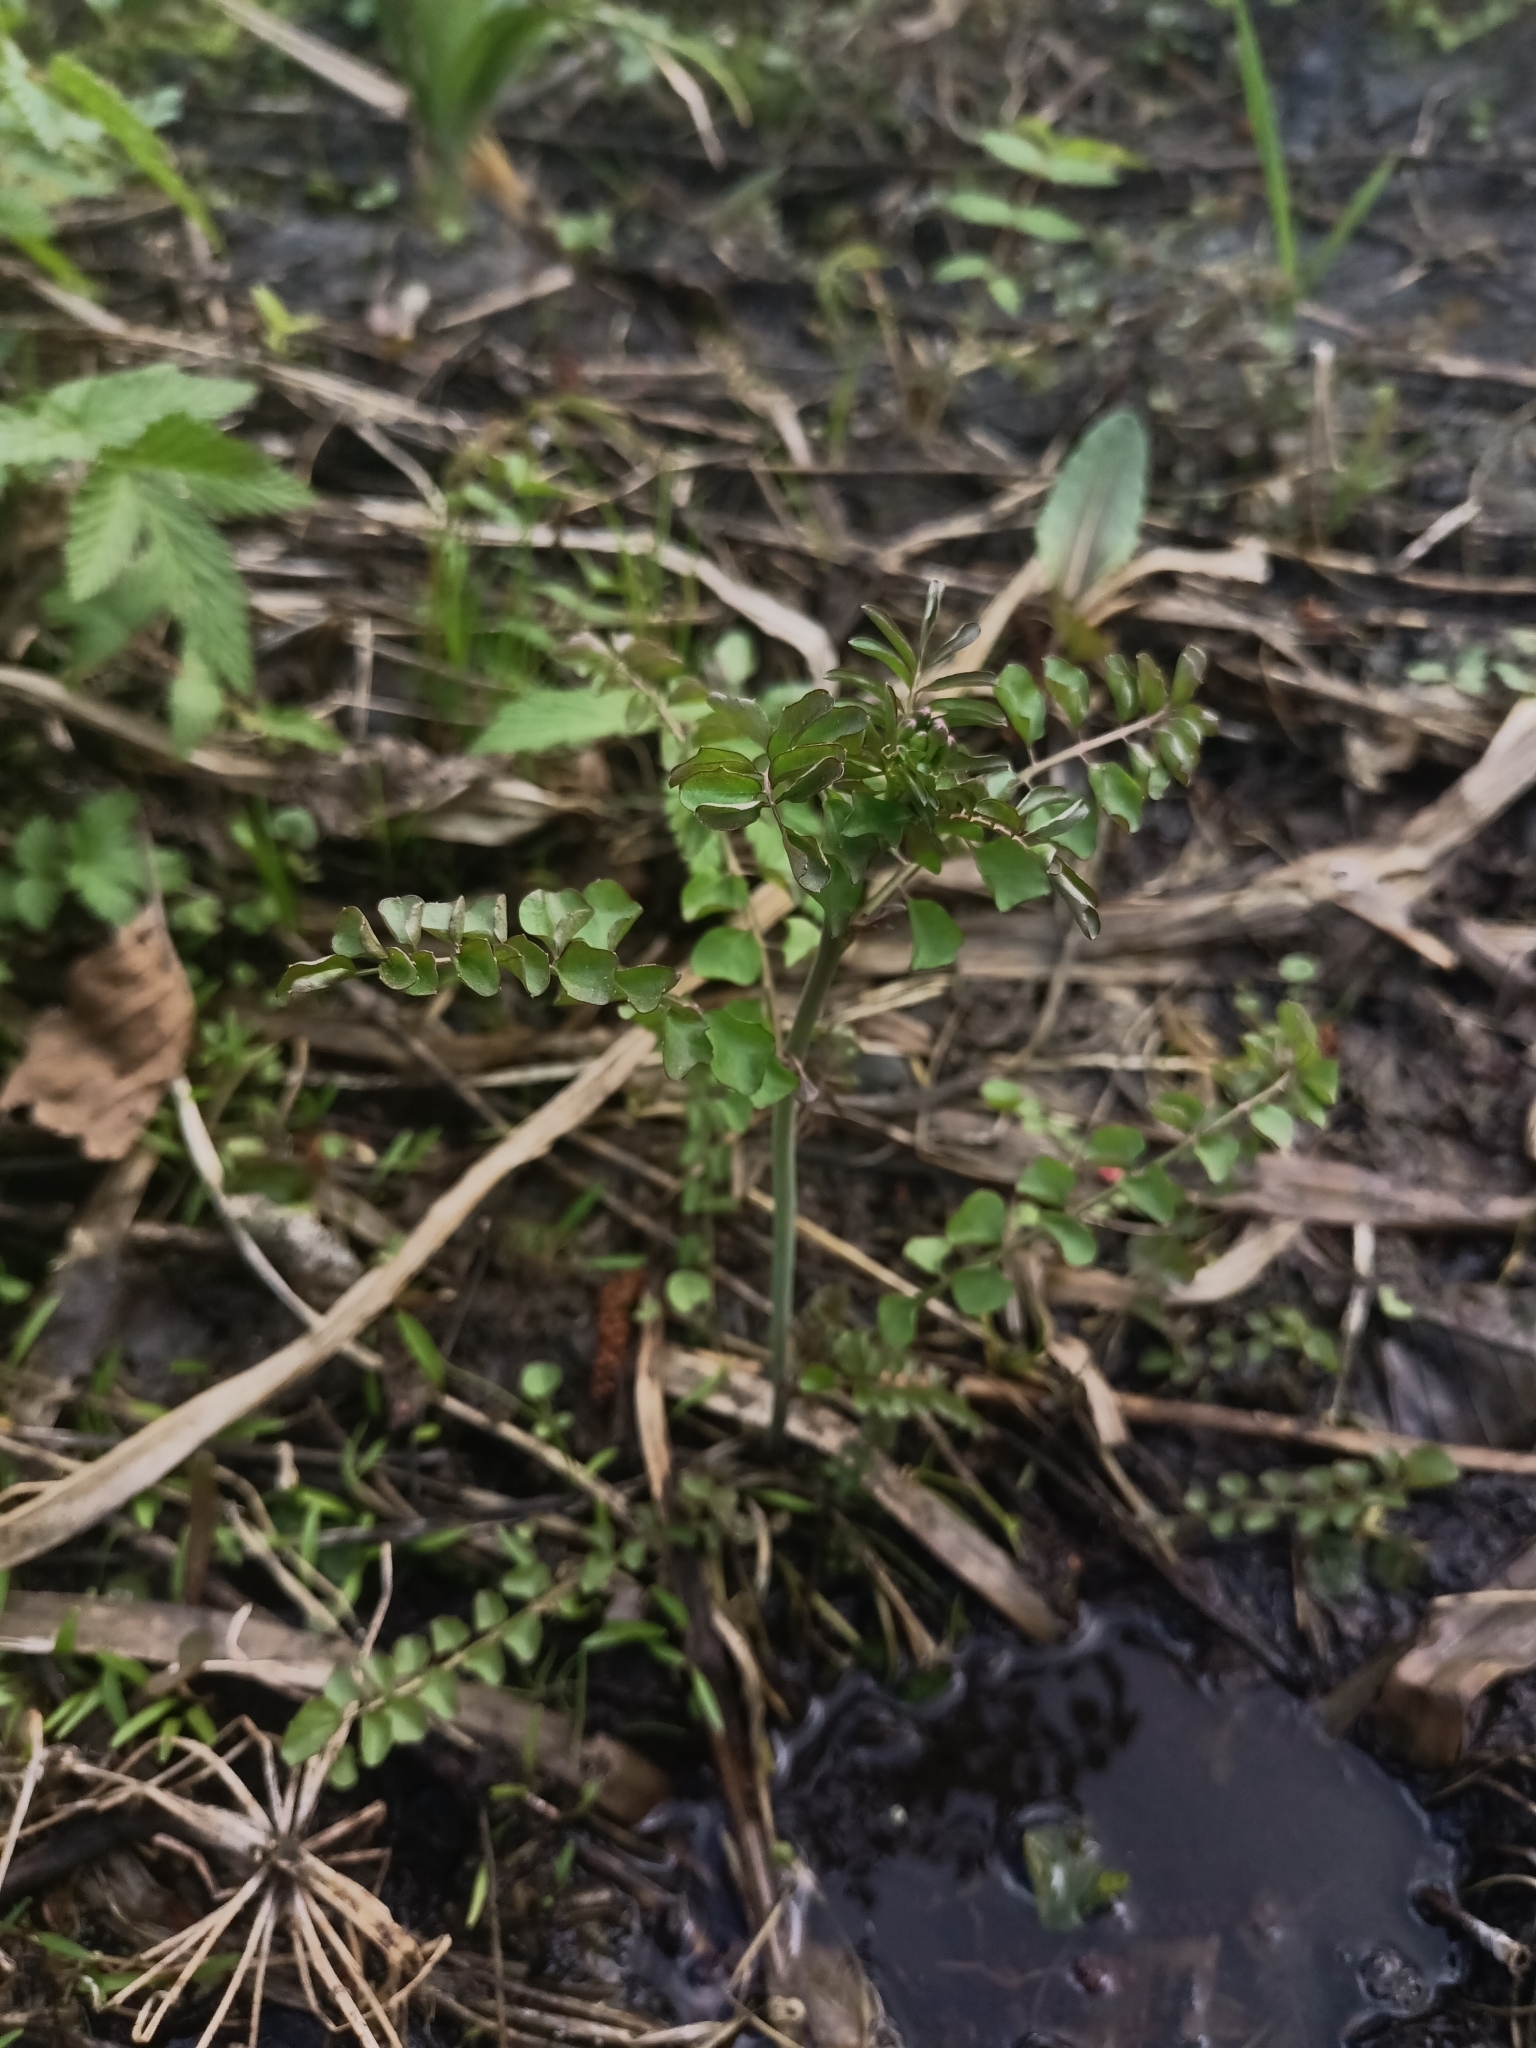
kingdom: Plantae
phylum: Tracheophyta
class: Magnoliopsida
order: Brassicales
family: Brassicaceae
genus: Cardamine
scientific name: Cardamine dentata
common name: Toothed bittercress
